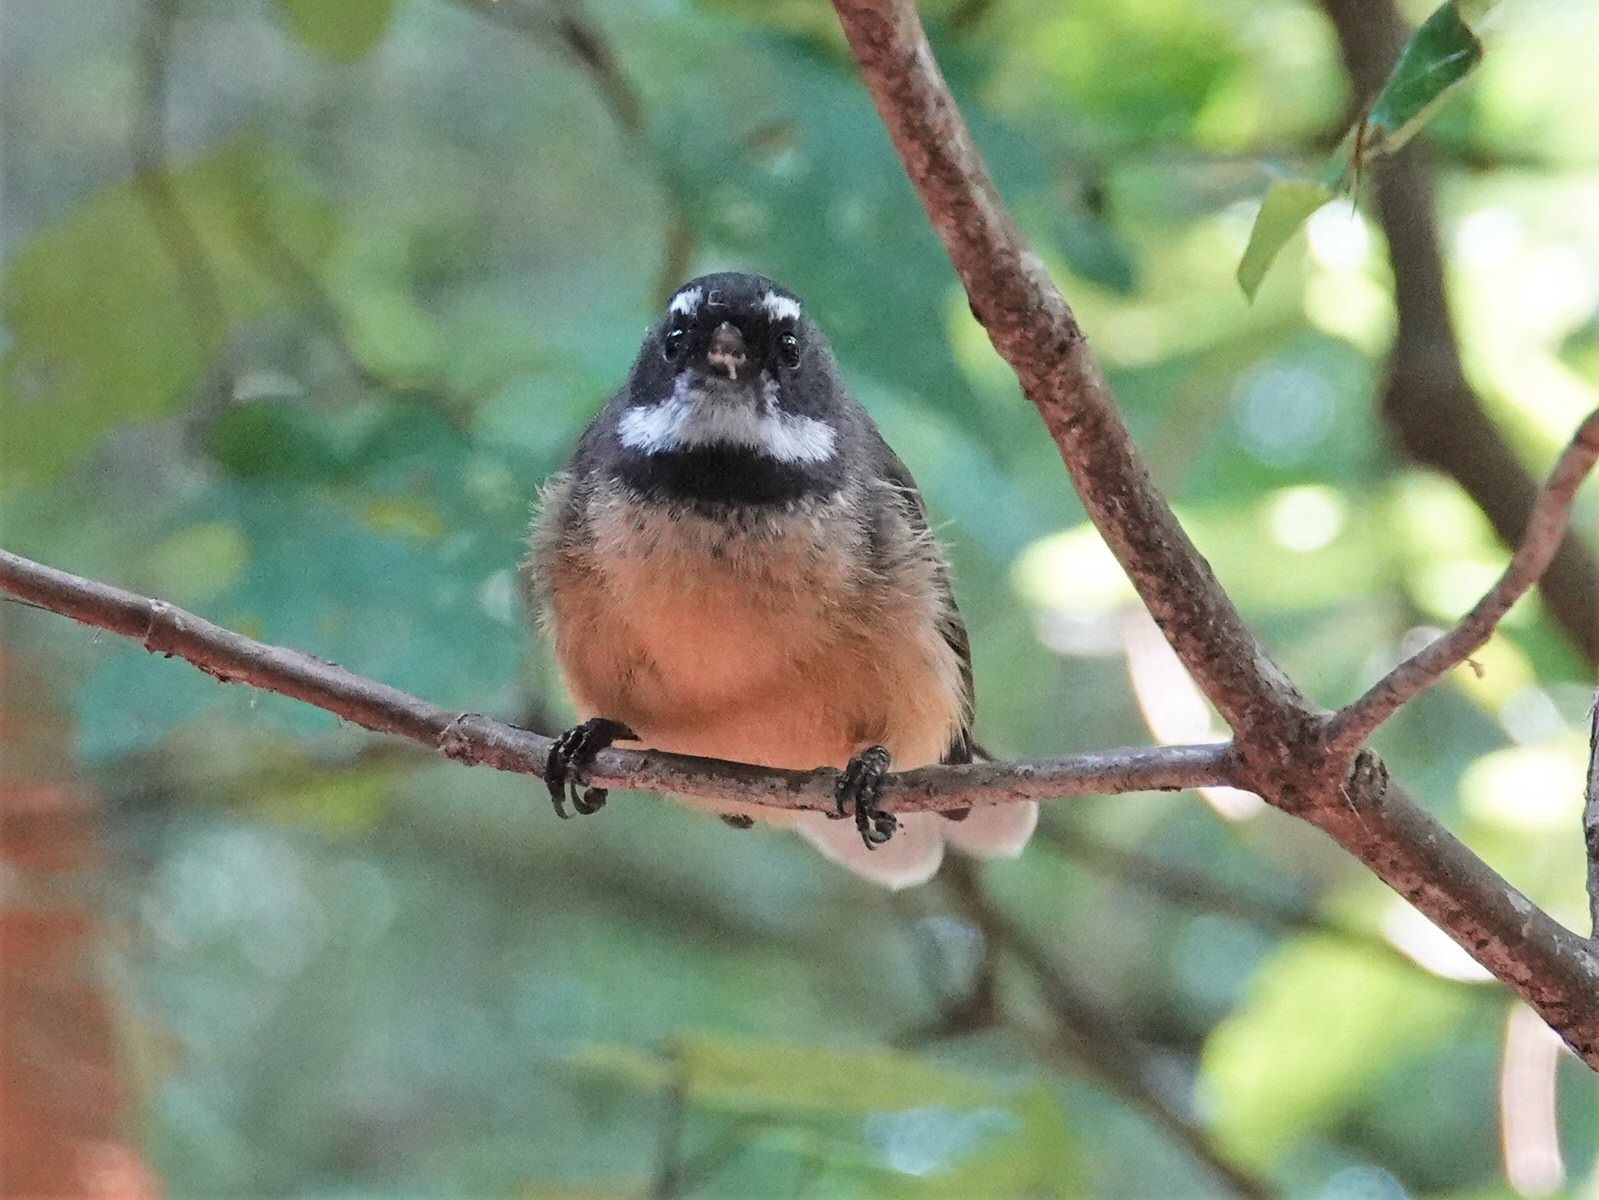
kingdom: Animalia
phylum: Chordata
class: Aves
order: Passeriformes
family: Rhipiduridae
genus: Rhipidura
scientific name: Rhipidura fuliginosa
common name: New zealand fantail
